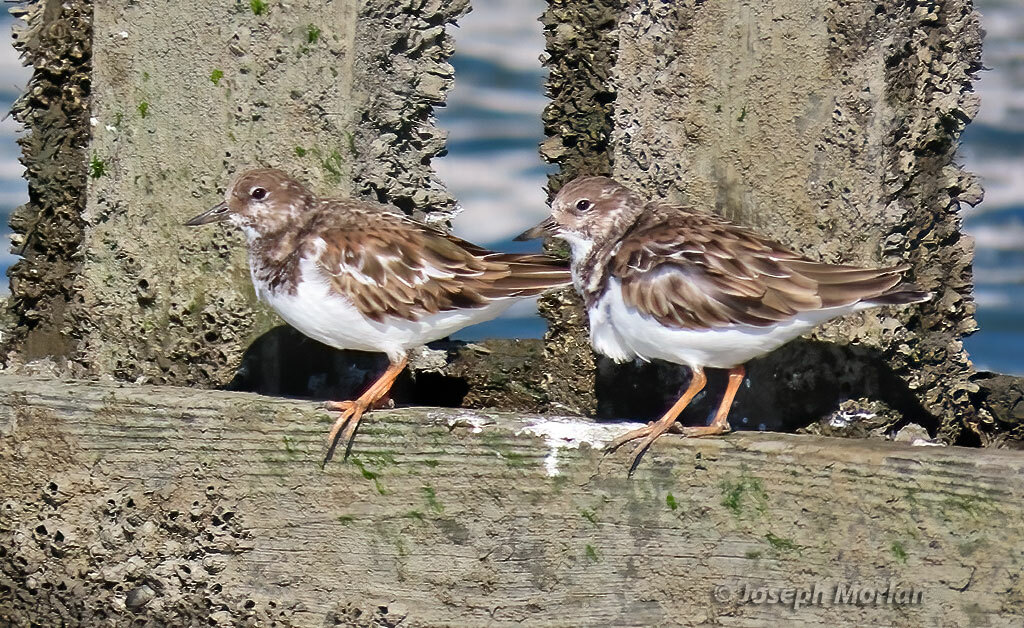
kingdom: Animalia
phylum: Chordata
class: Aves
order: Charadriiformes
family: Scolopacidae
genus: Arenaria
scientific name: Arenaria interpres
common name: Ruddy turnstone
